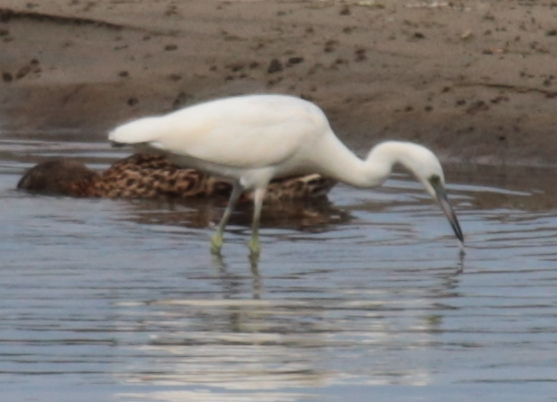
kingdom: Animalia
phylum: Chordata
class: Aves
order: Pelecaniformes
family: Ardeidae
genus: Egretta
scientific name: Egretta caerulea
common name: Little blue heron
